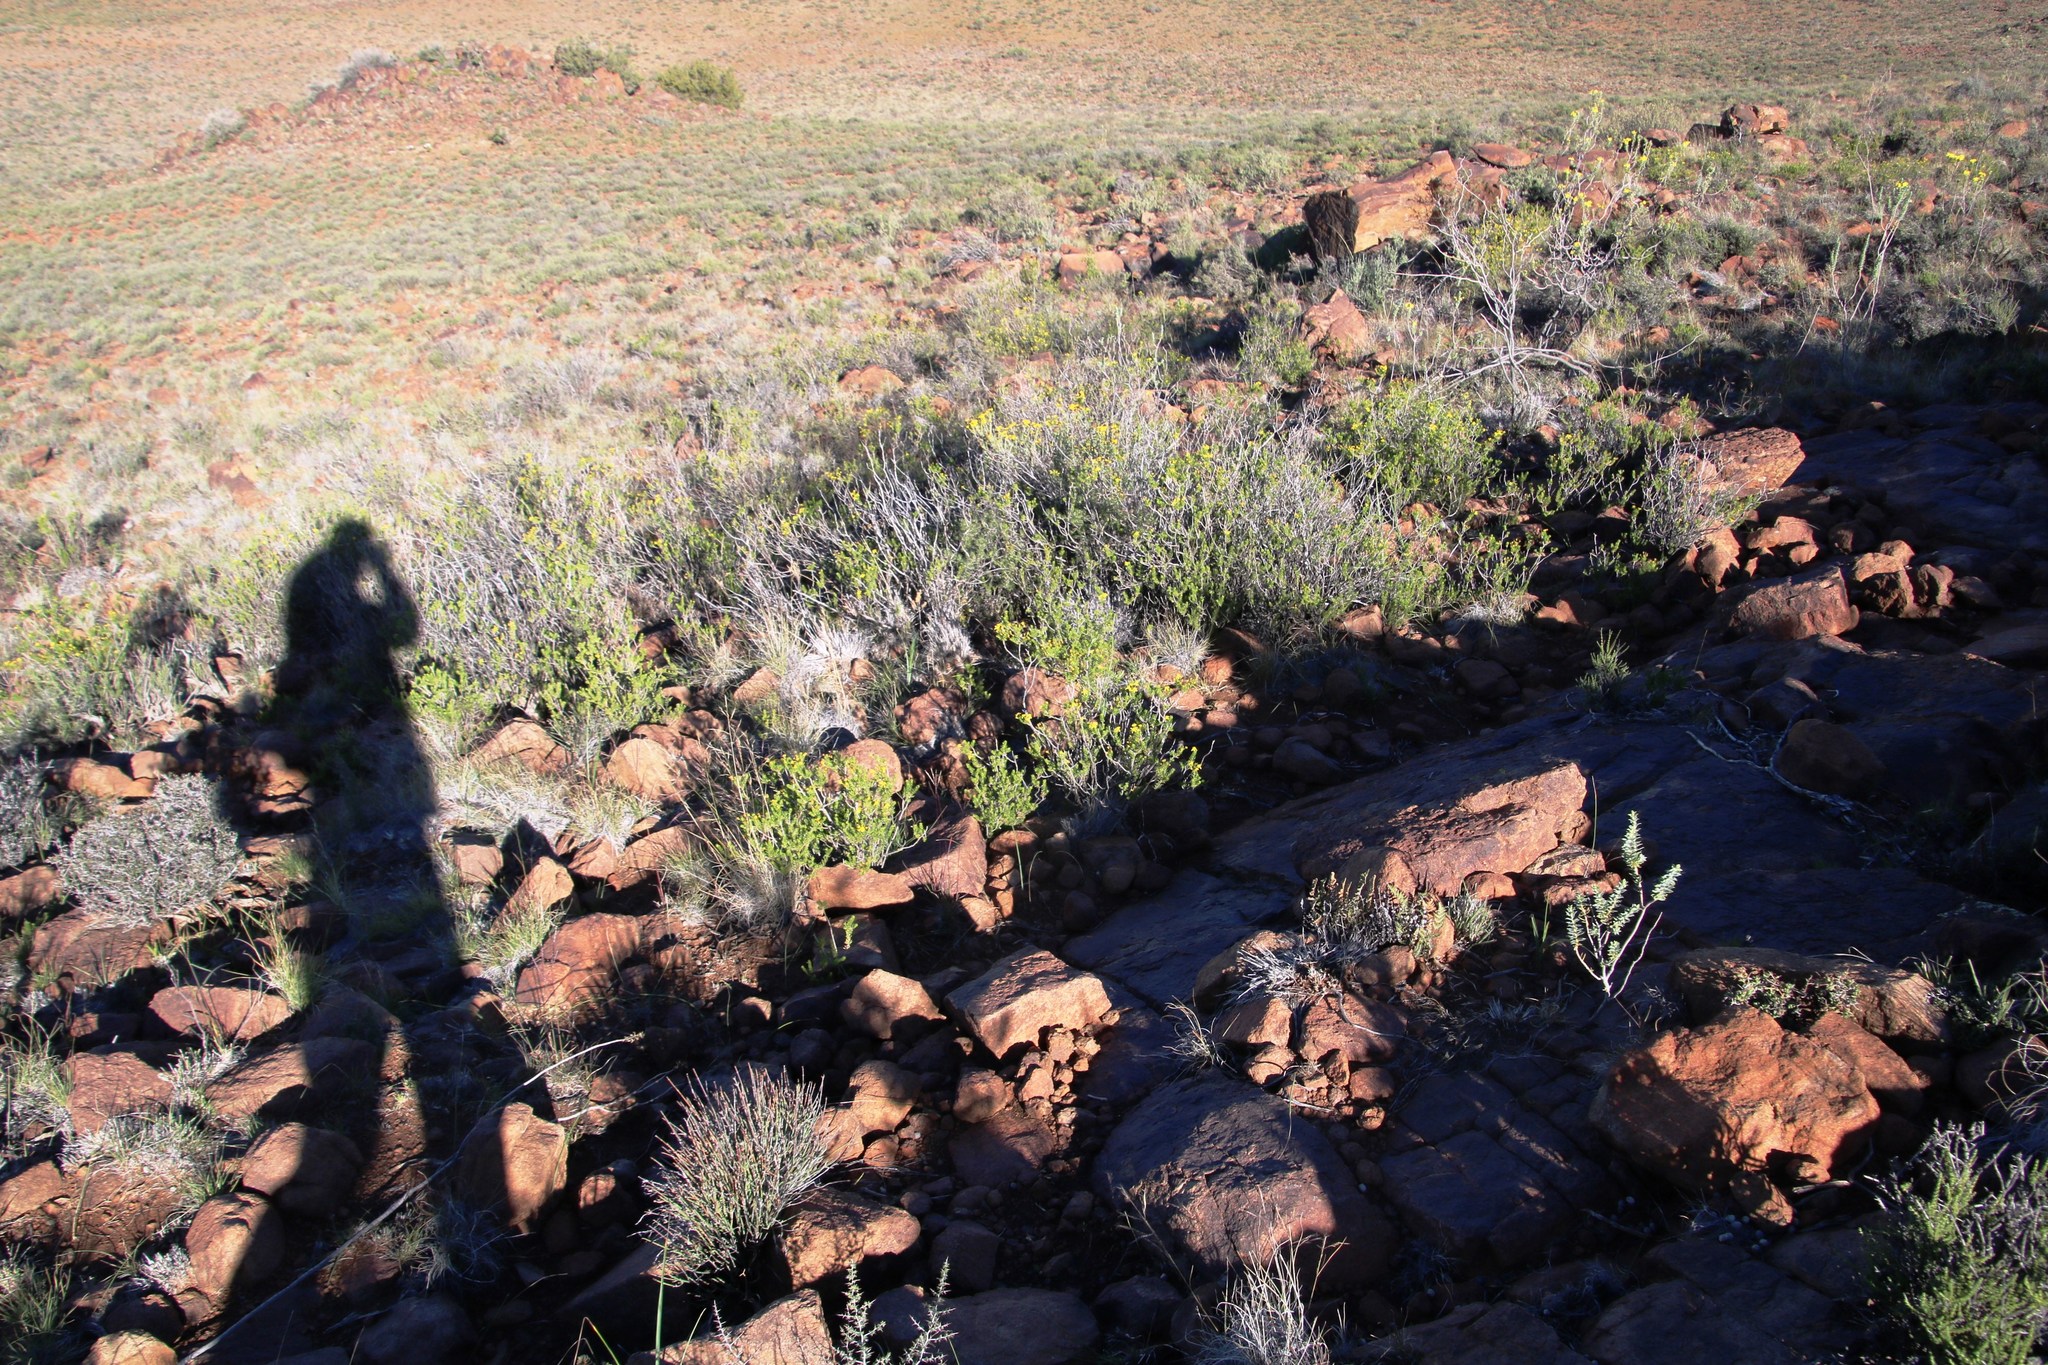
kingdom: Plantae
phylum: Tracheophyta
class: Magnoliopsida
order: Asterales
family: Asteraceae
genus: Euryops
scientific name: Euryops nodosus
